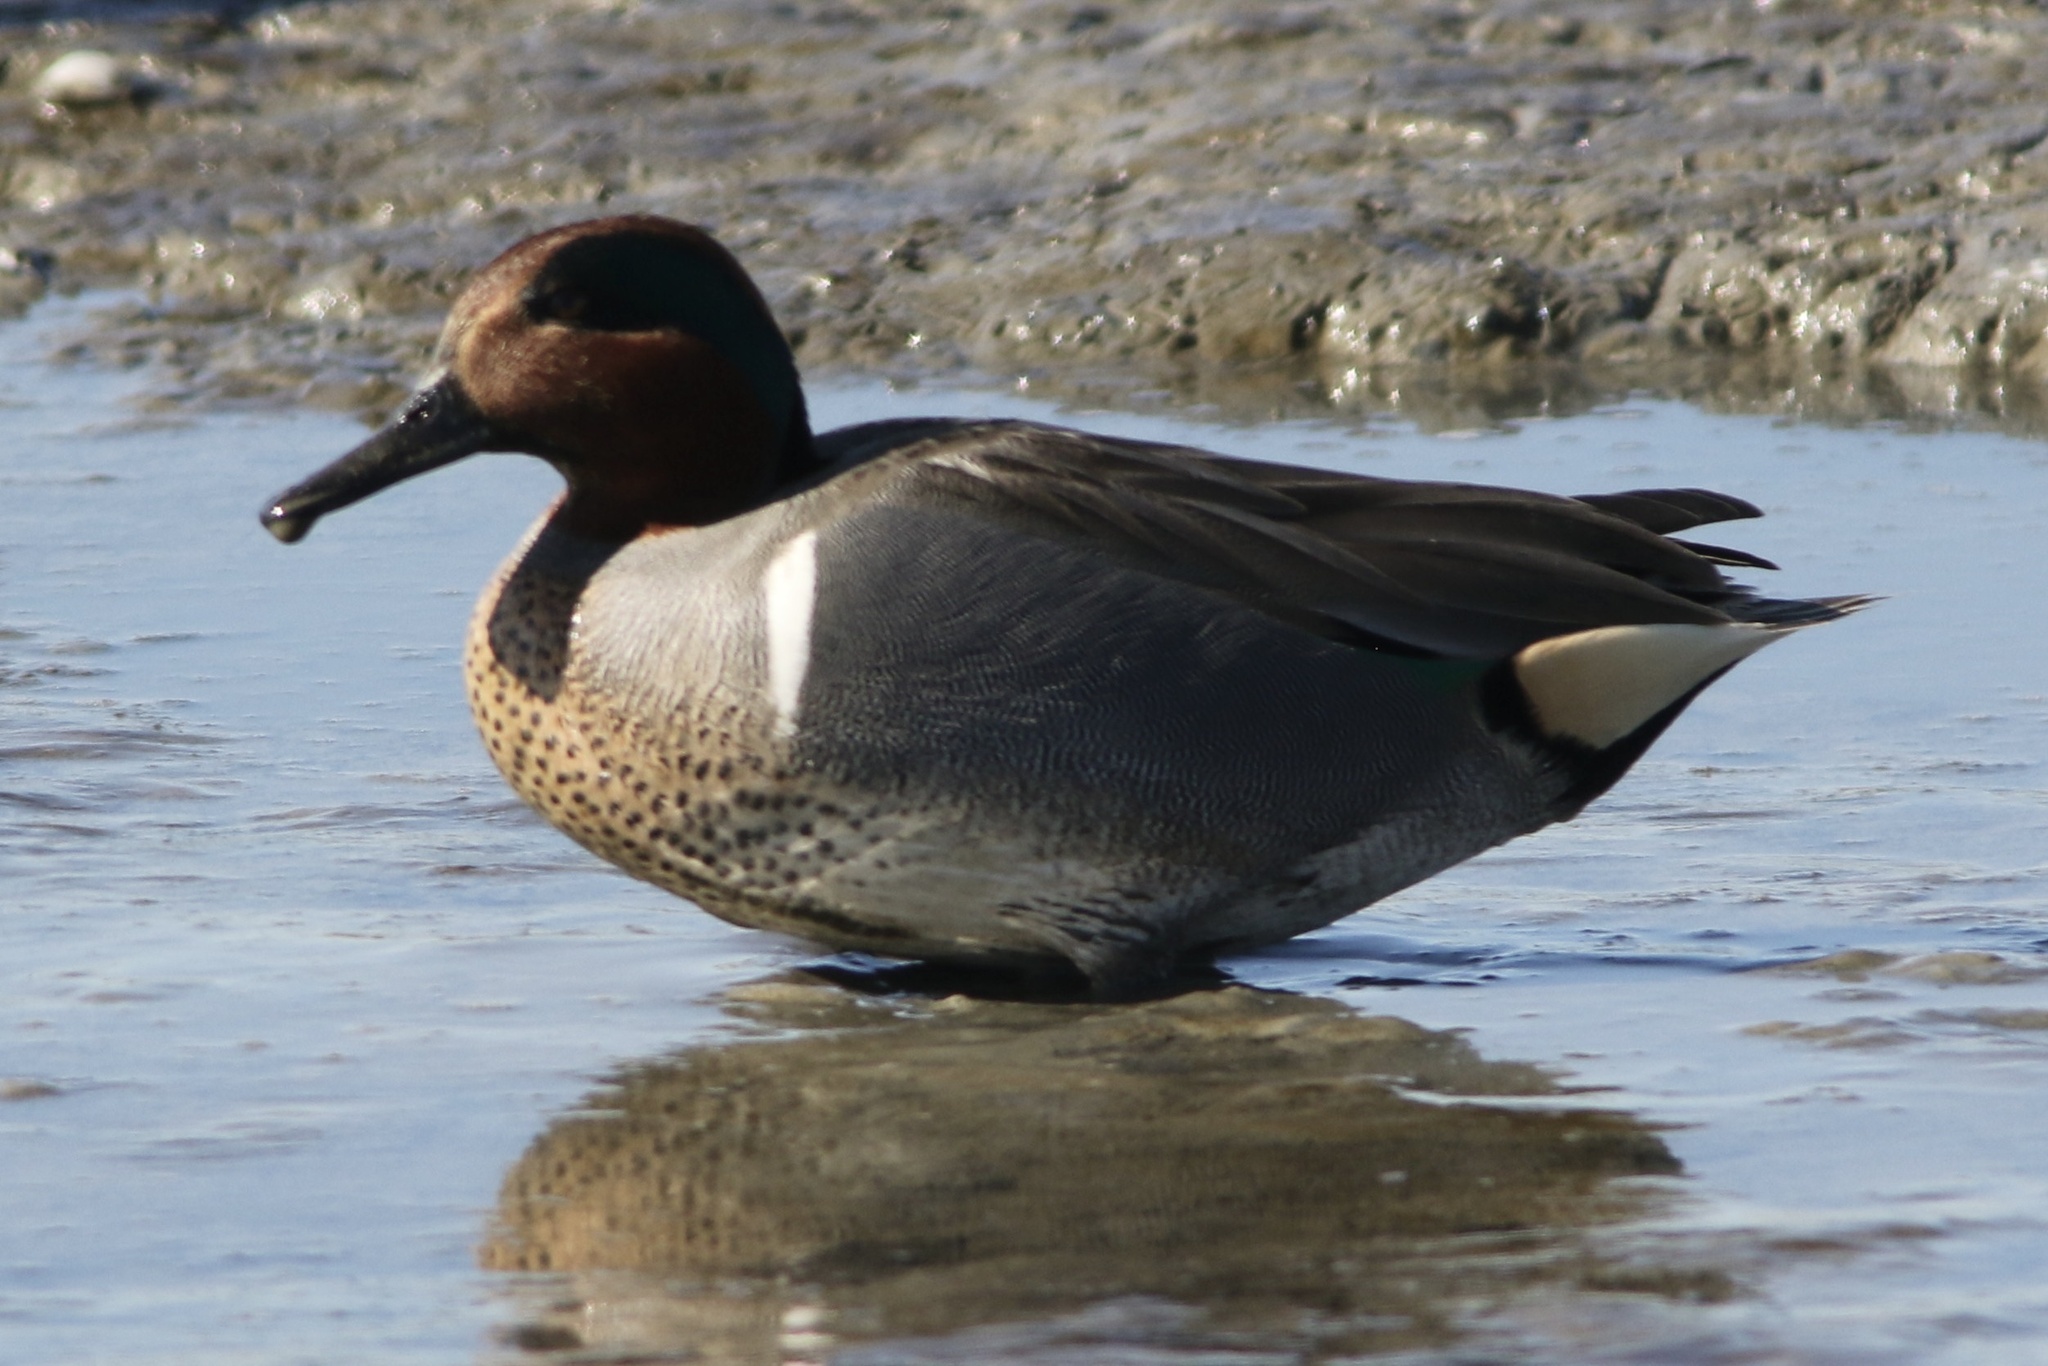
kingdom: Animalia
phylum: Chordata
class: Aves
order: Anseriformes
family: Anatidae
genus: Anas
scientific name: Anas crecca
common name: Eurasian teal
